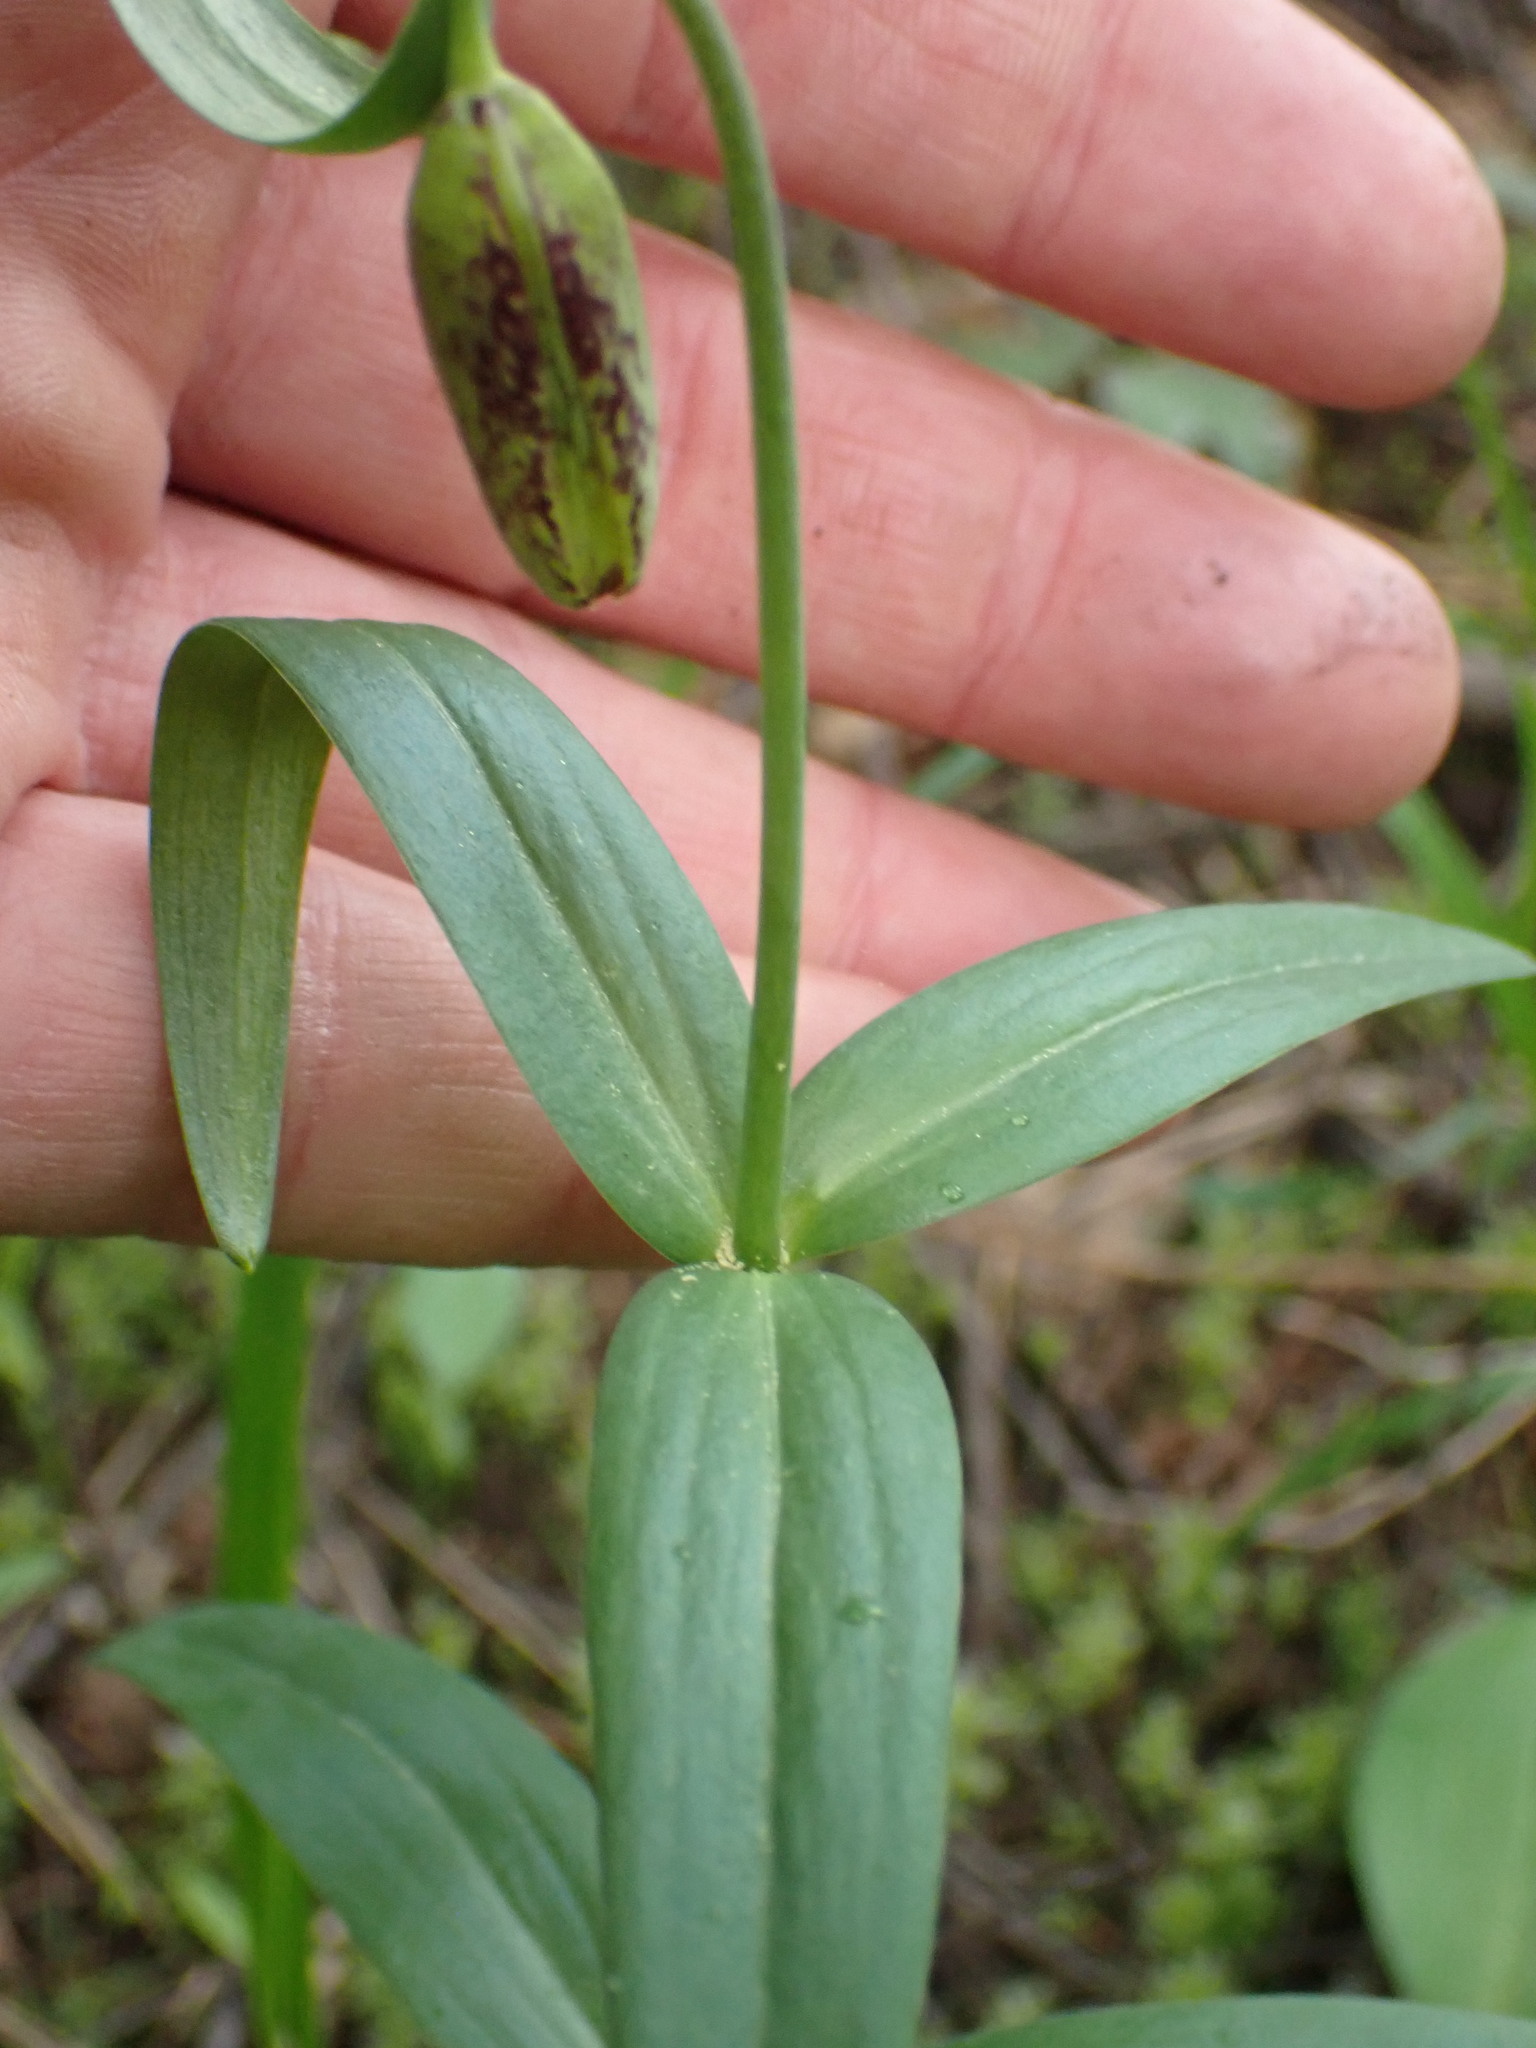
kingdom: Plantae
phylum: Tracheophyta
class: Liliopsida
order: Liliales
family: Liliaceae
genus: Fritillaria
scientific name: Fritillaria affinis
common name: Ojai fritillary
